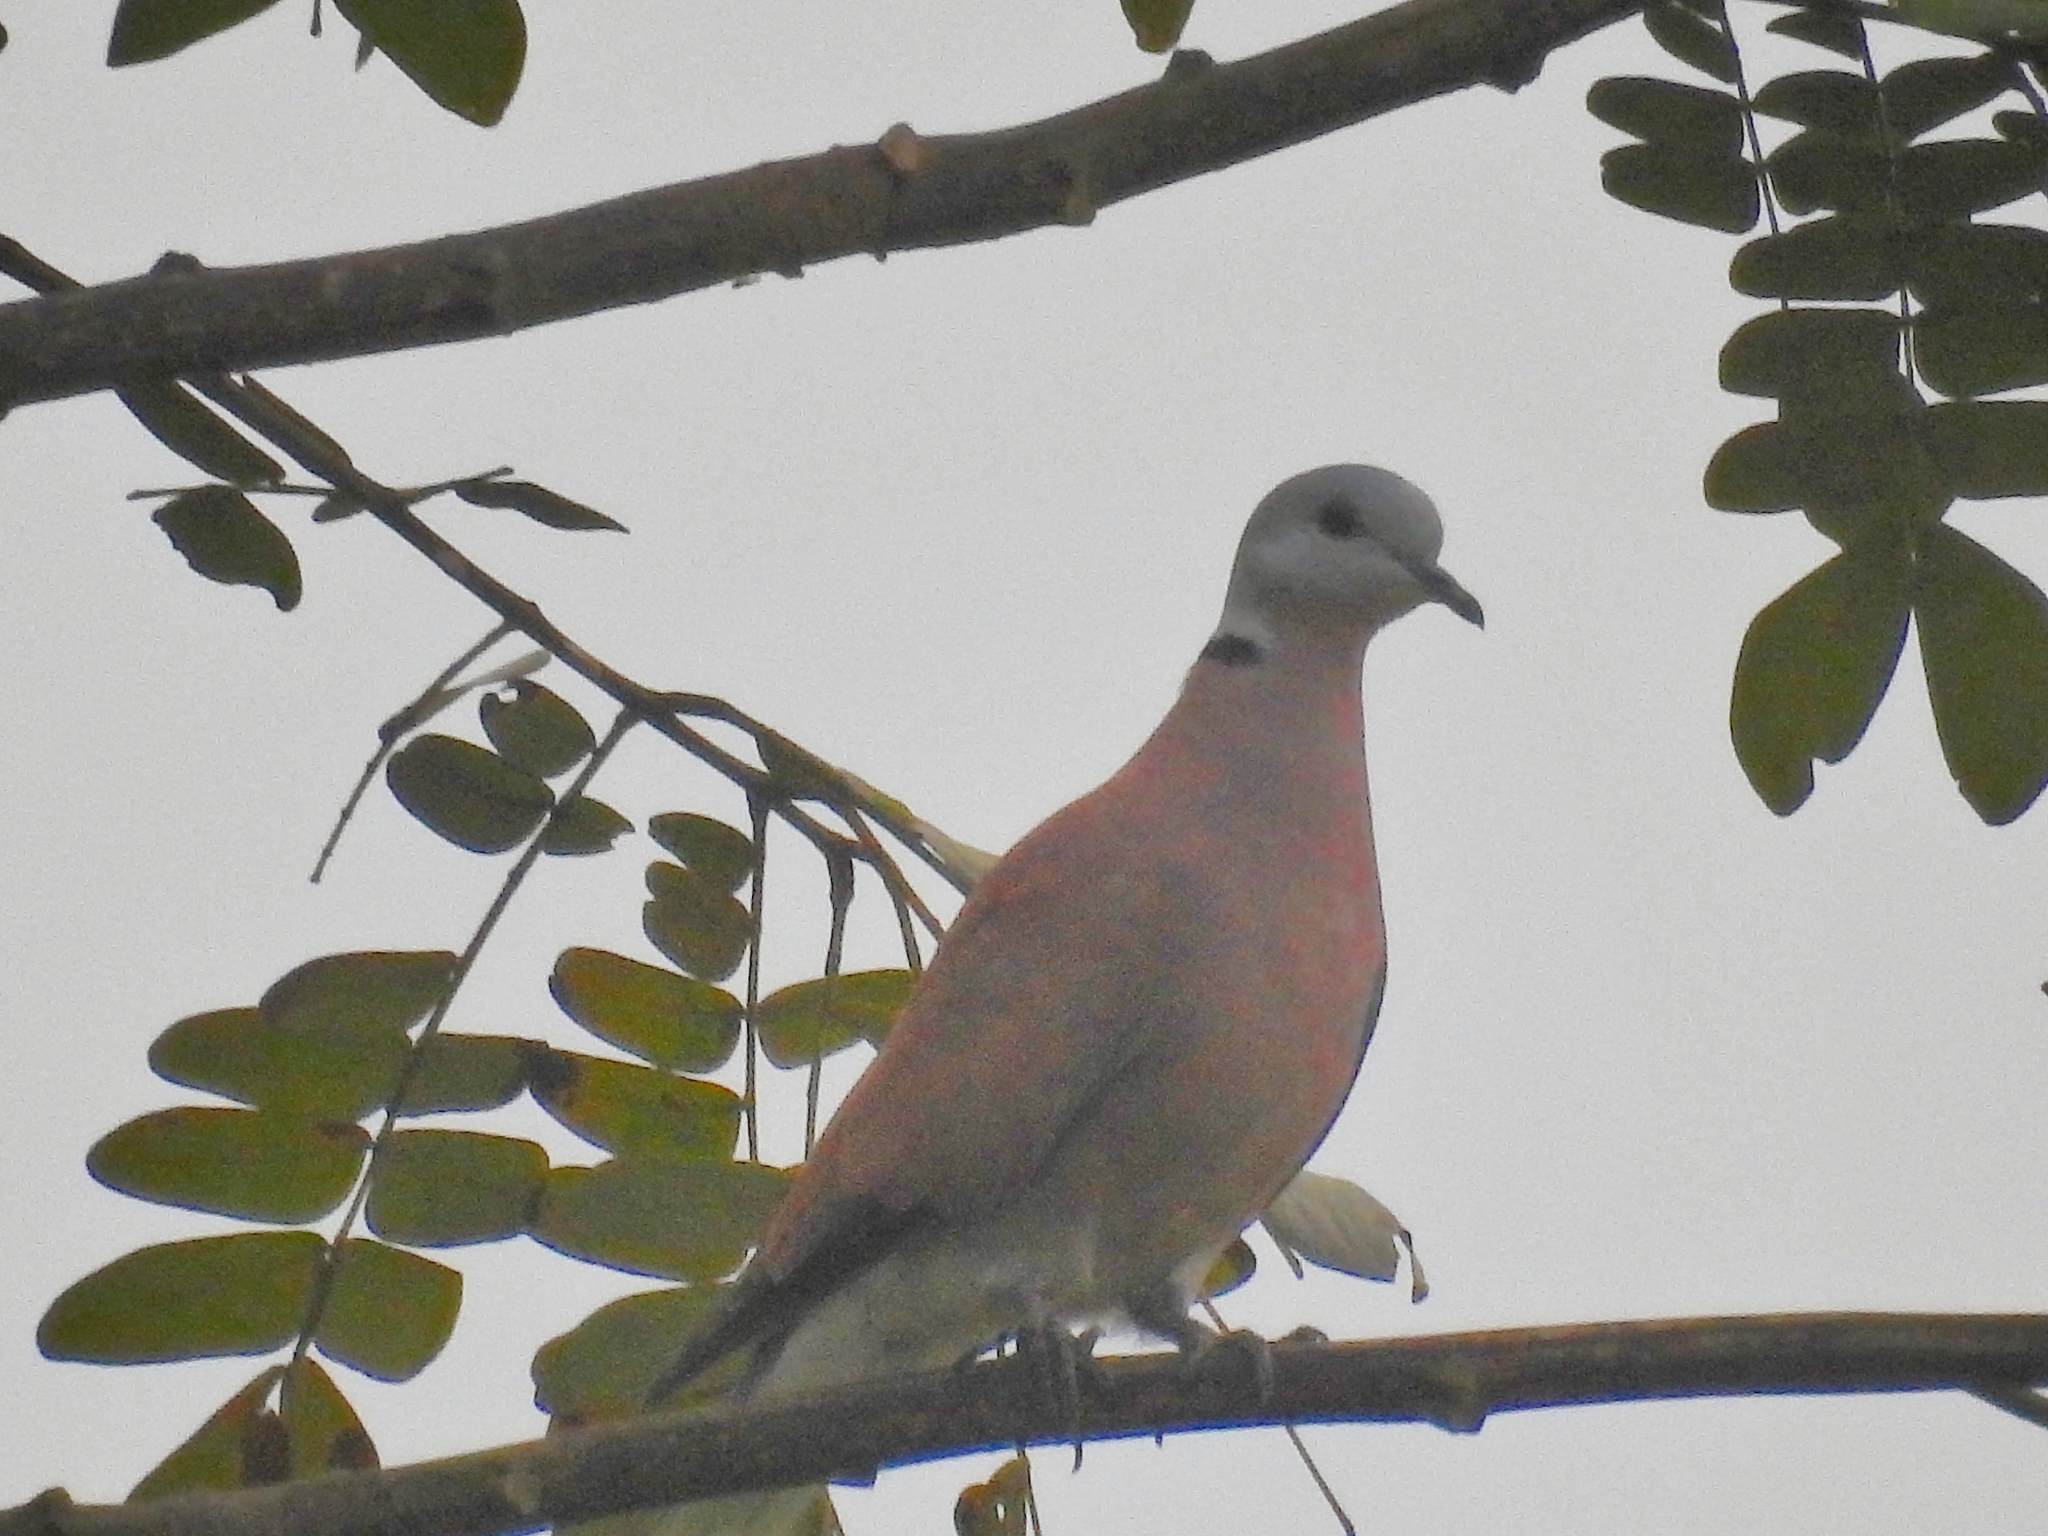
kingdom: Animalia
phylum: Chordata
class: Aves
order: Columbiformes
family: Columbidae
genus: Streptopelia
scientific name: Streptopelia tranquebarica
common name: Red turtle dove
